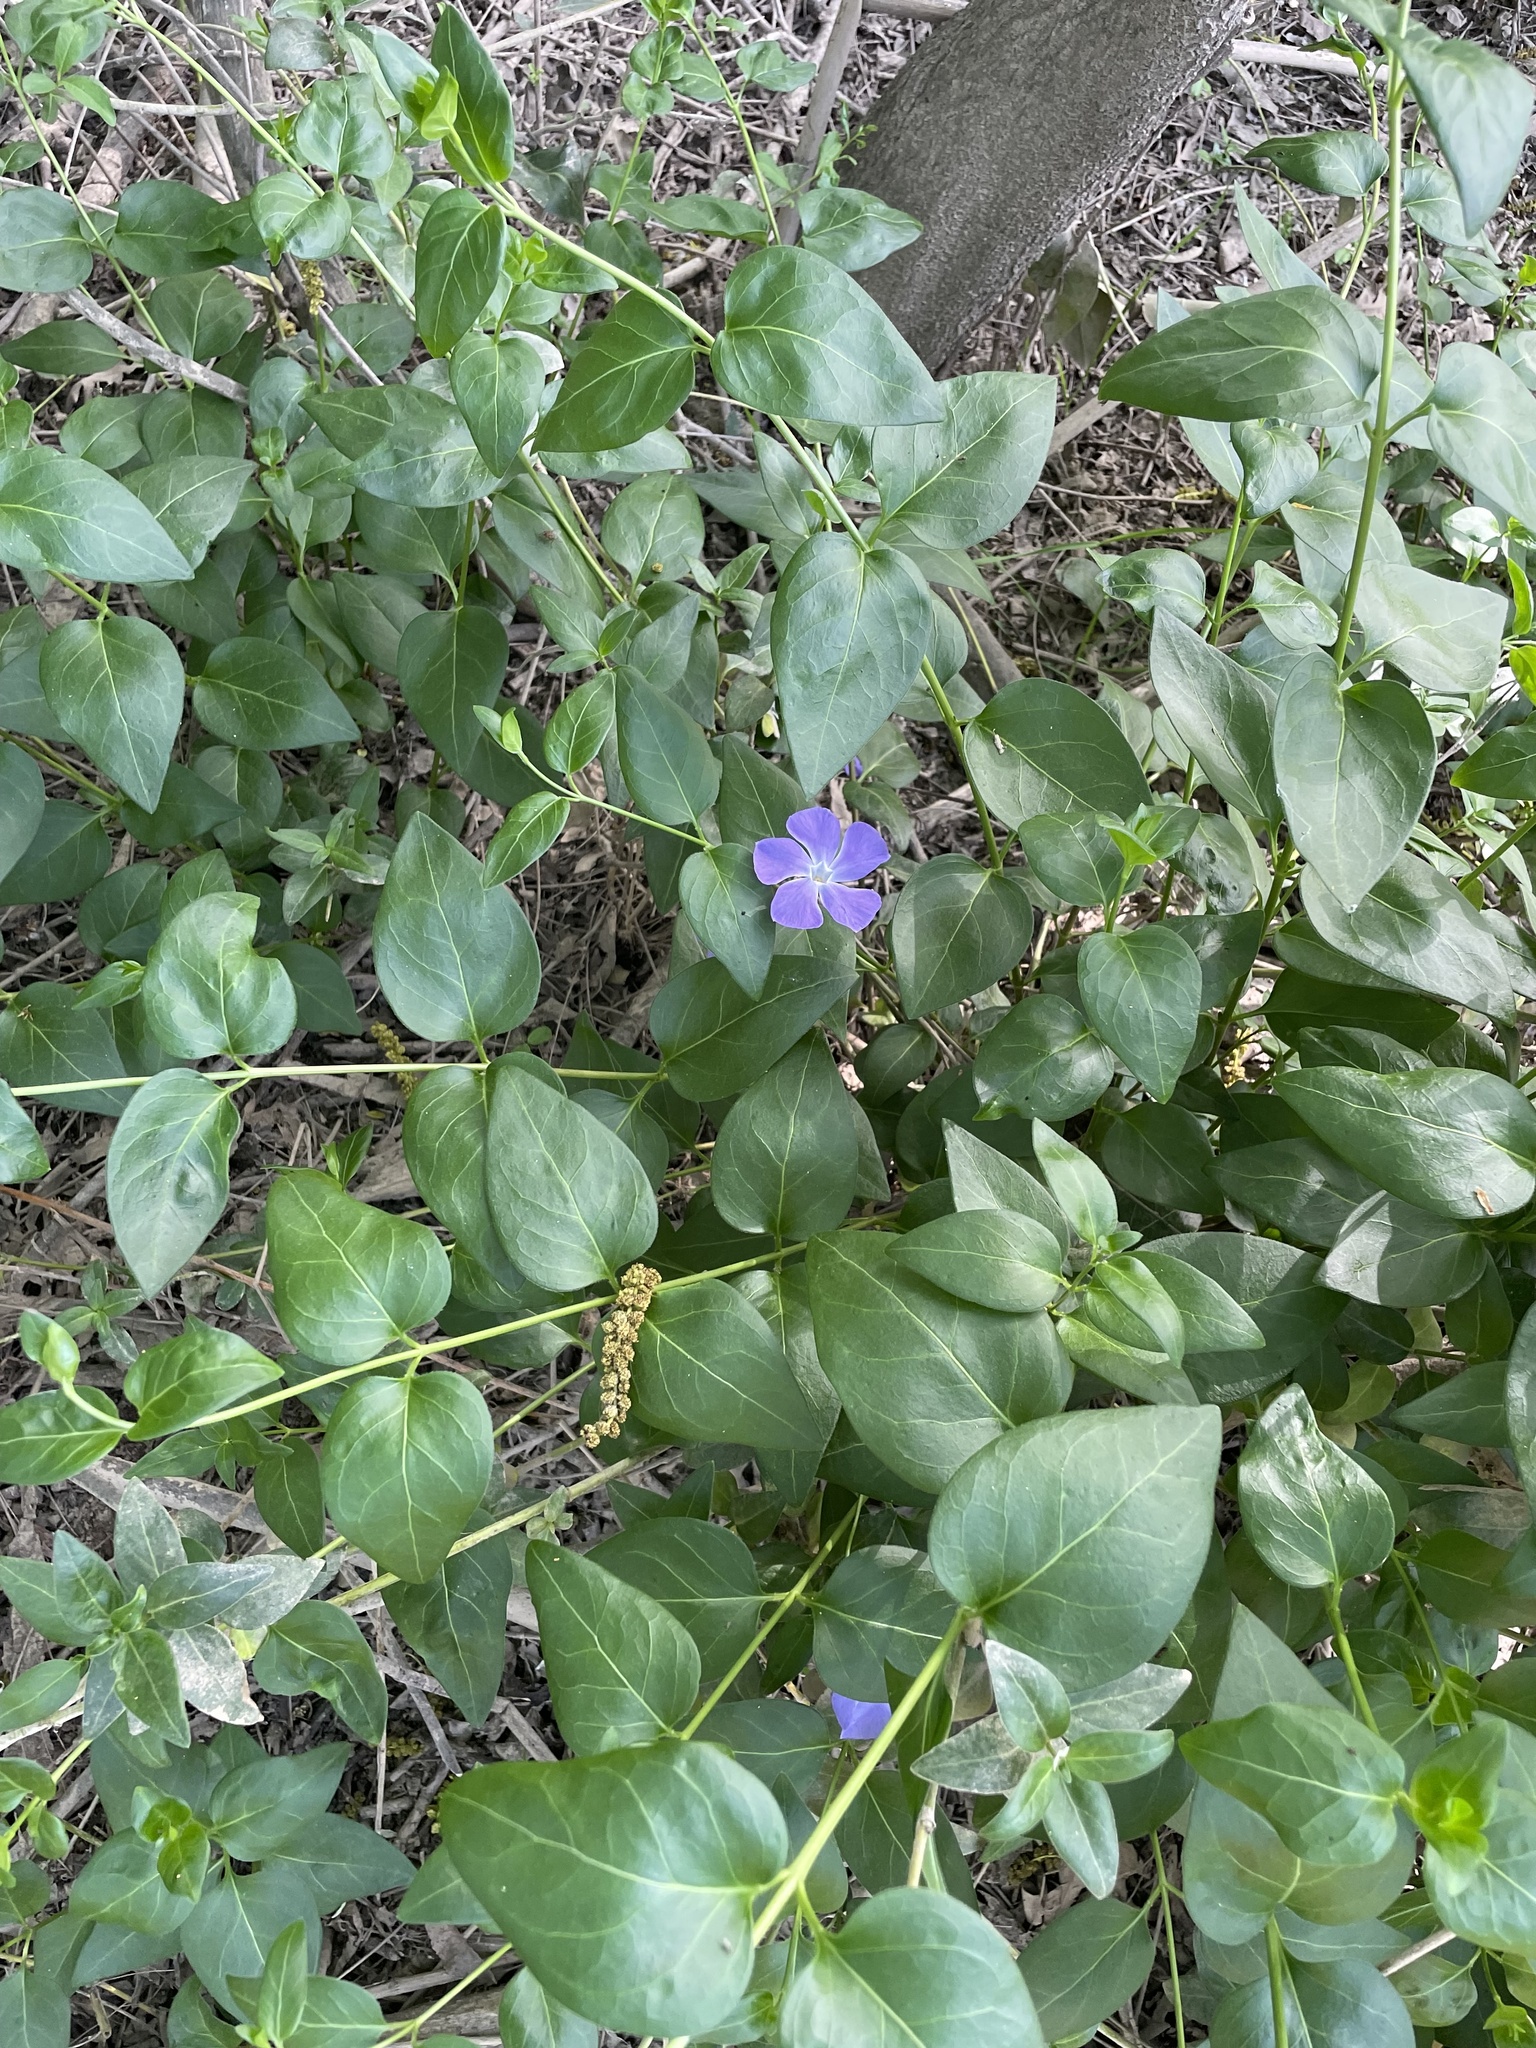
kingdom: Plantae
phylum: Tracheophyta
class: Magnoliopsida
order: Gentianales
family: Apocynaceae
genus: Vinca
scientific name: Vinca major
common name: Greater periwinkle
